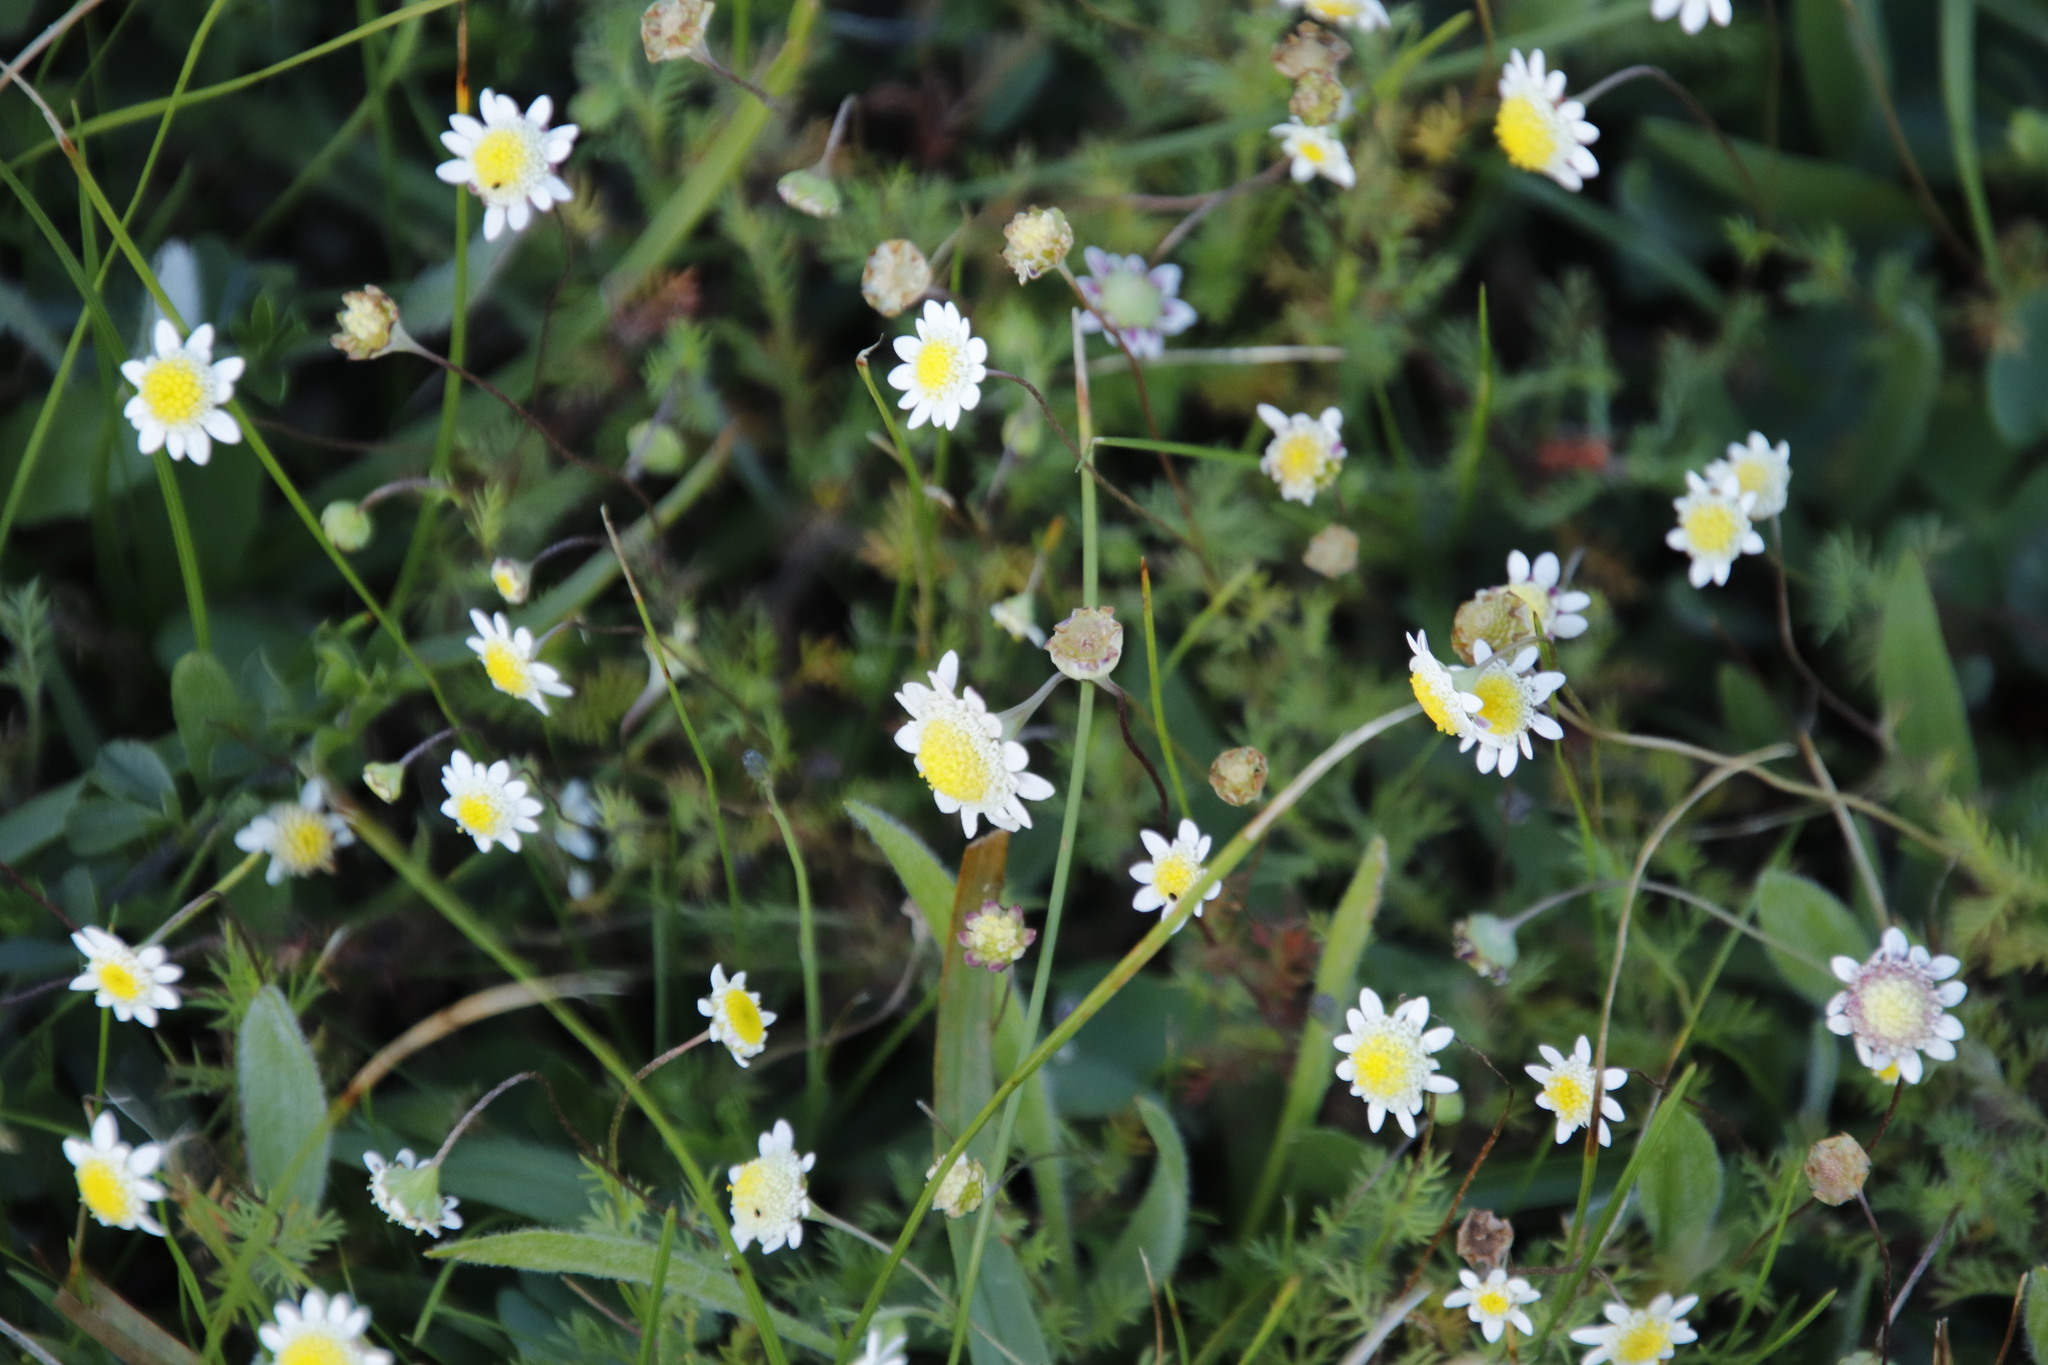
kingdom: Plantae
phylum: Tracheophyta
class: Magnoliopsida
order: Asterales
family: Asteraceae
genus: Cotula
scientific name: Cotula turbinata
